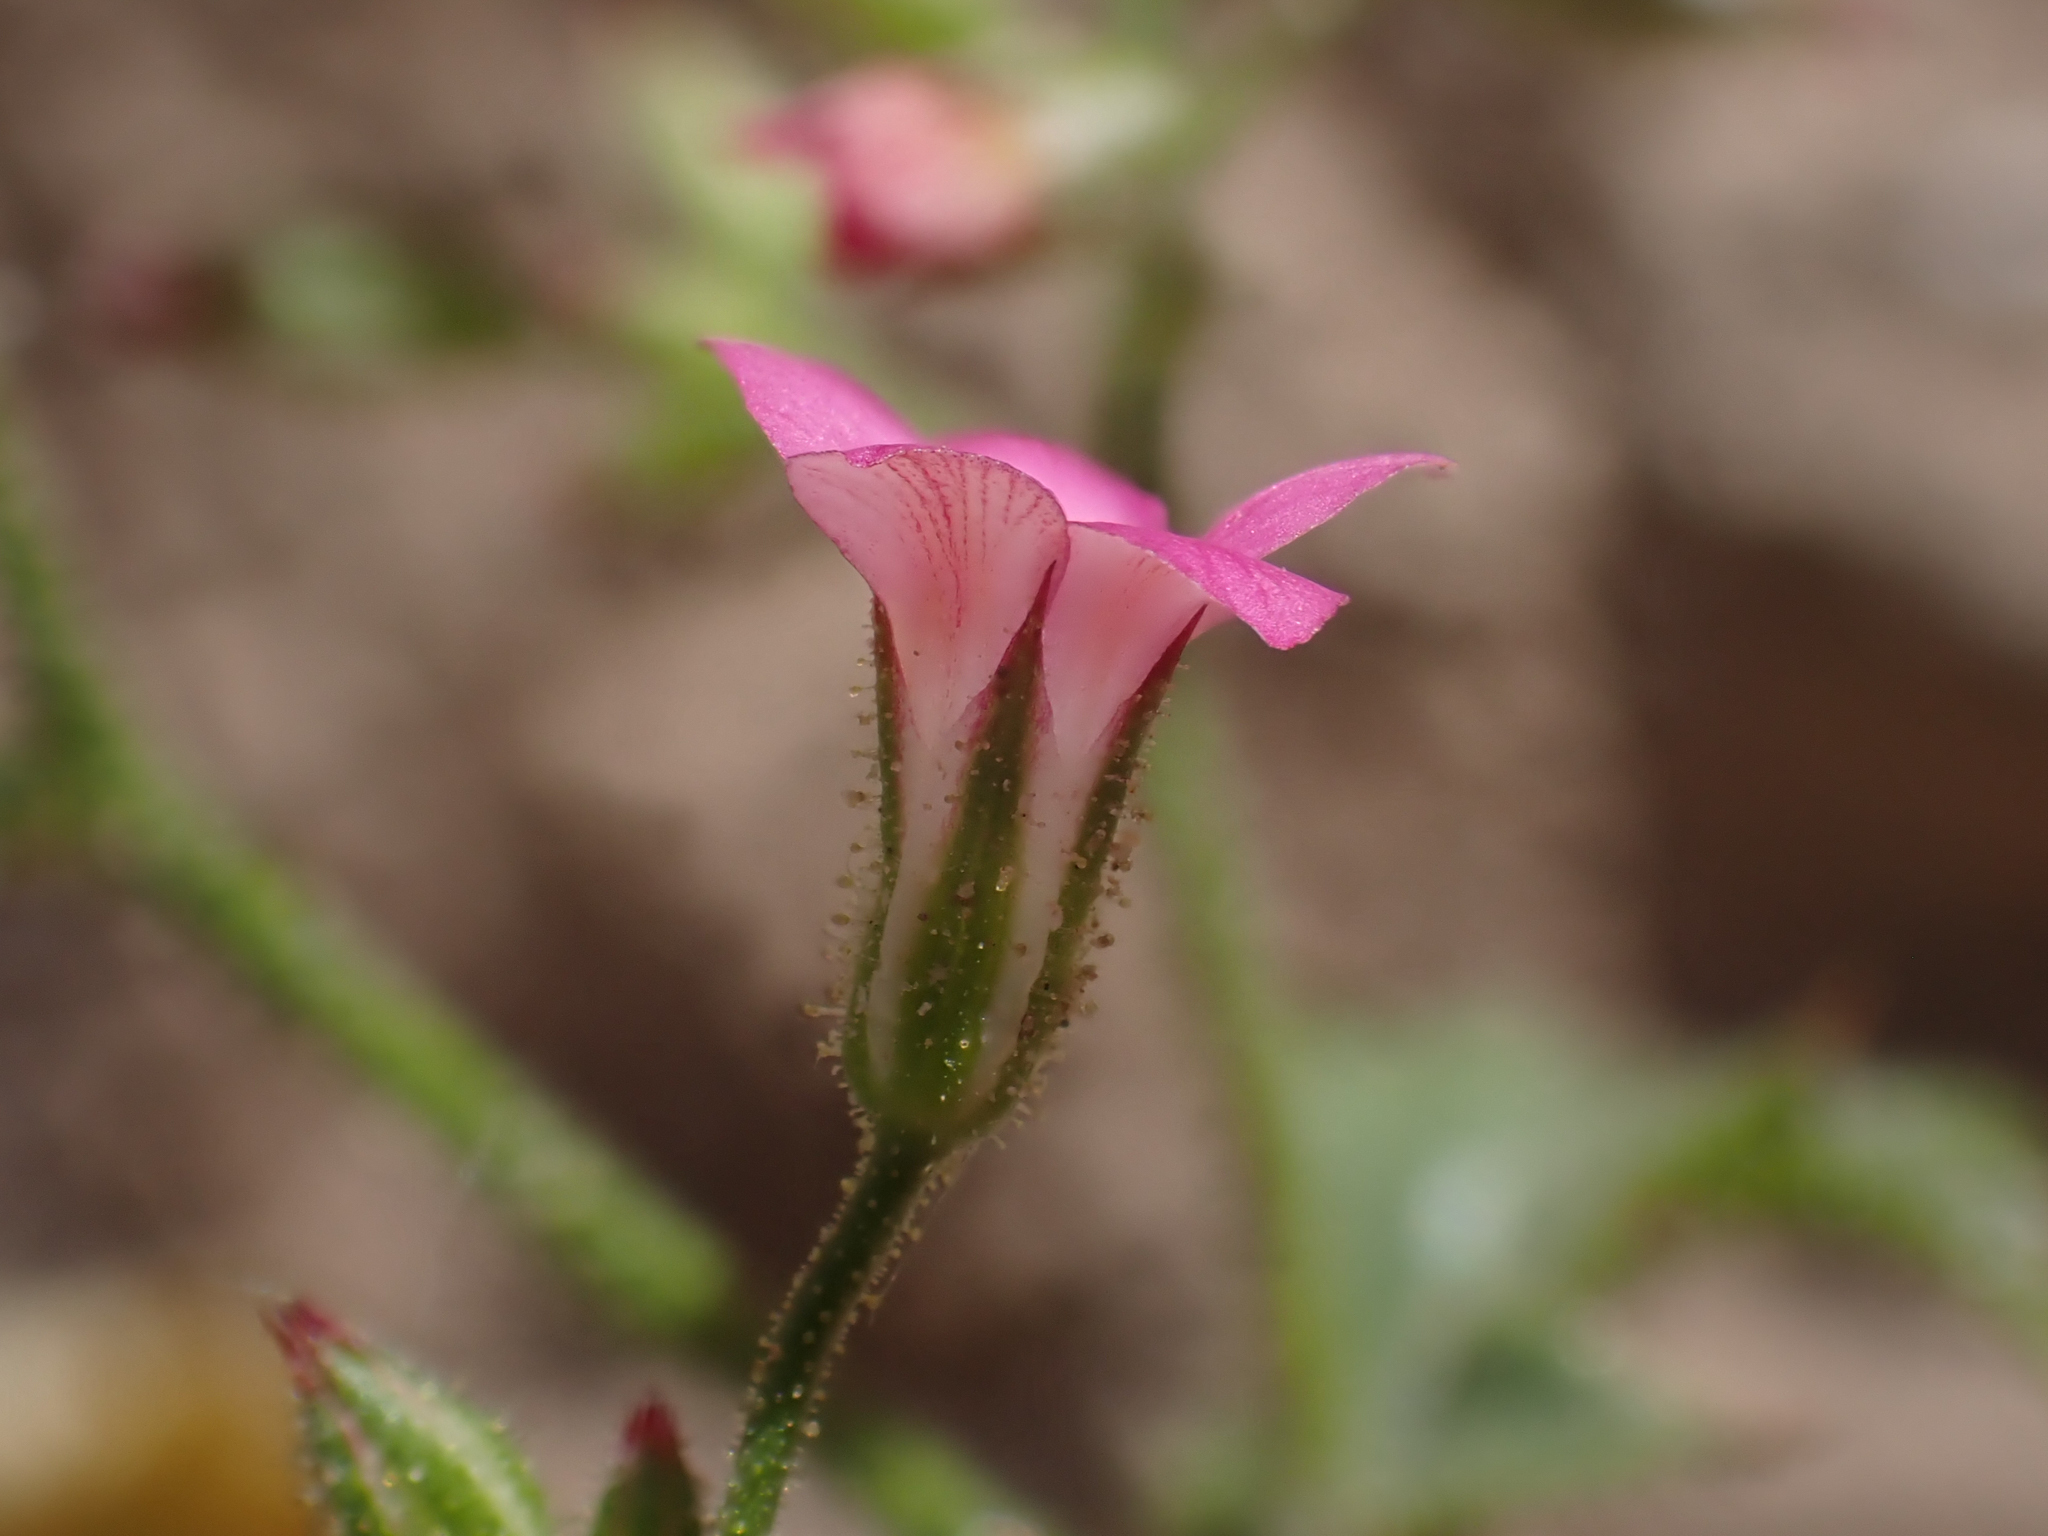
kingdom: Plantae
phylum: Tracheophyta
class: Magnoliopsida
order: Ericales
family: Polemoniaceae
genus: Aliciella
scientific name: Aliciella latifolia
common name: Broad-leaf gilia
